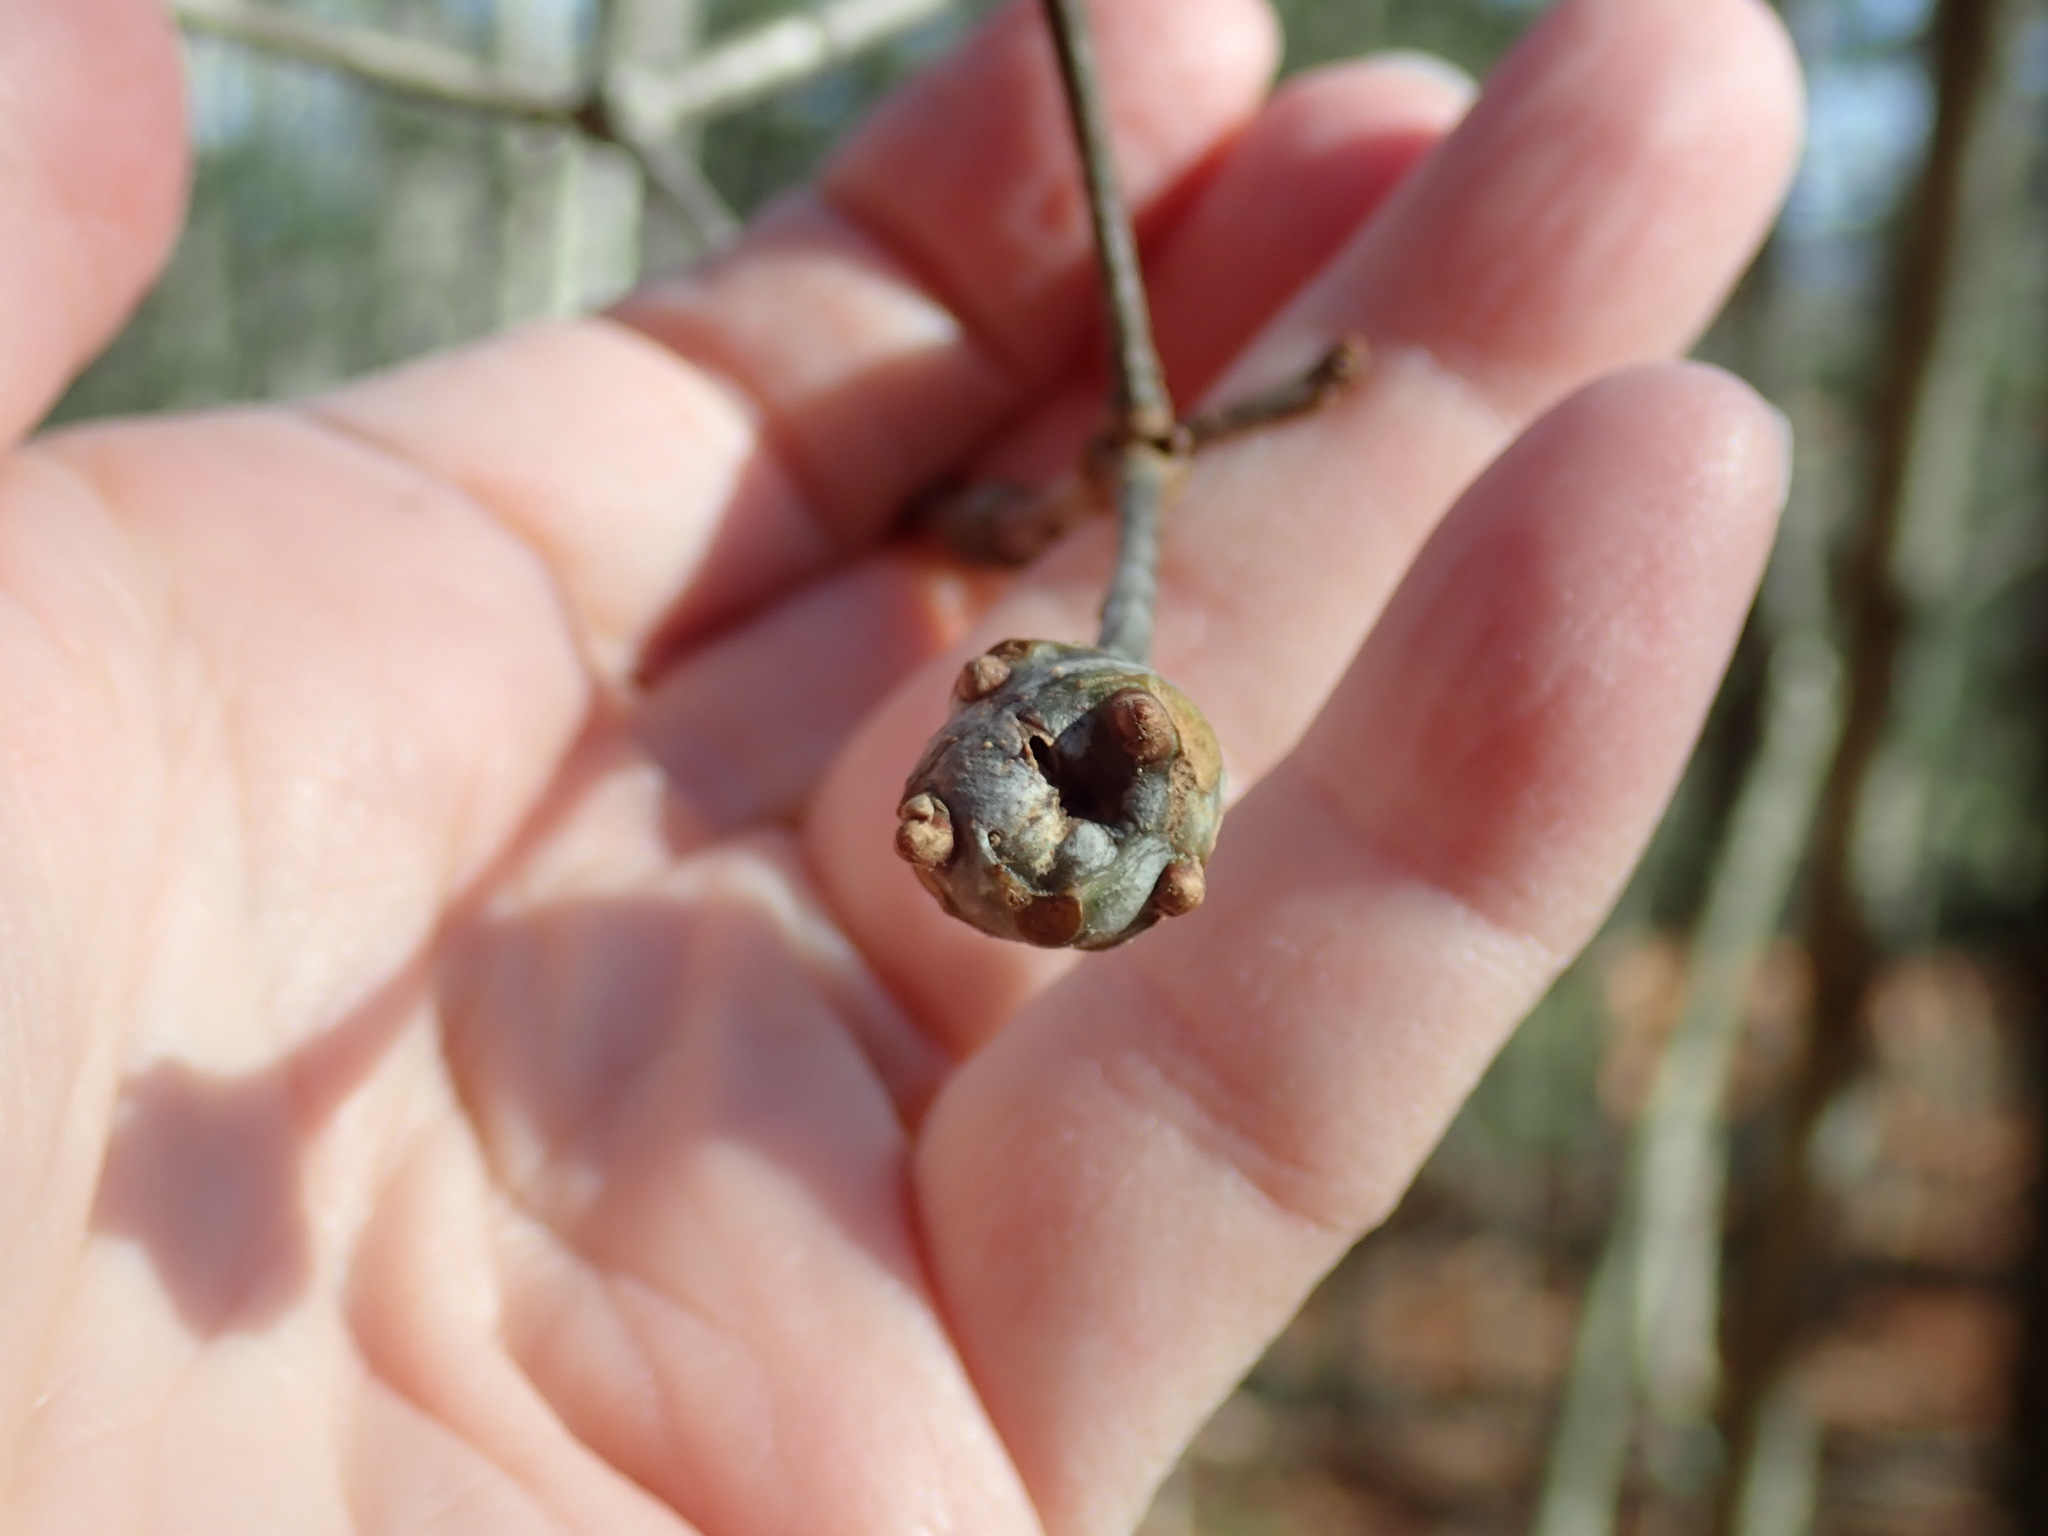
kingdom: Animalia
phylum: Arthropoda
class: Insecta
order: Hymenoptera
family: Cynipidae
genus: Callirhytis
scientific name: Callirhytis clavula
